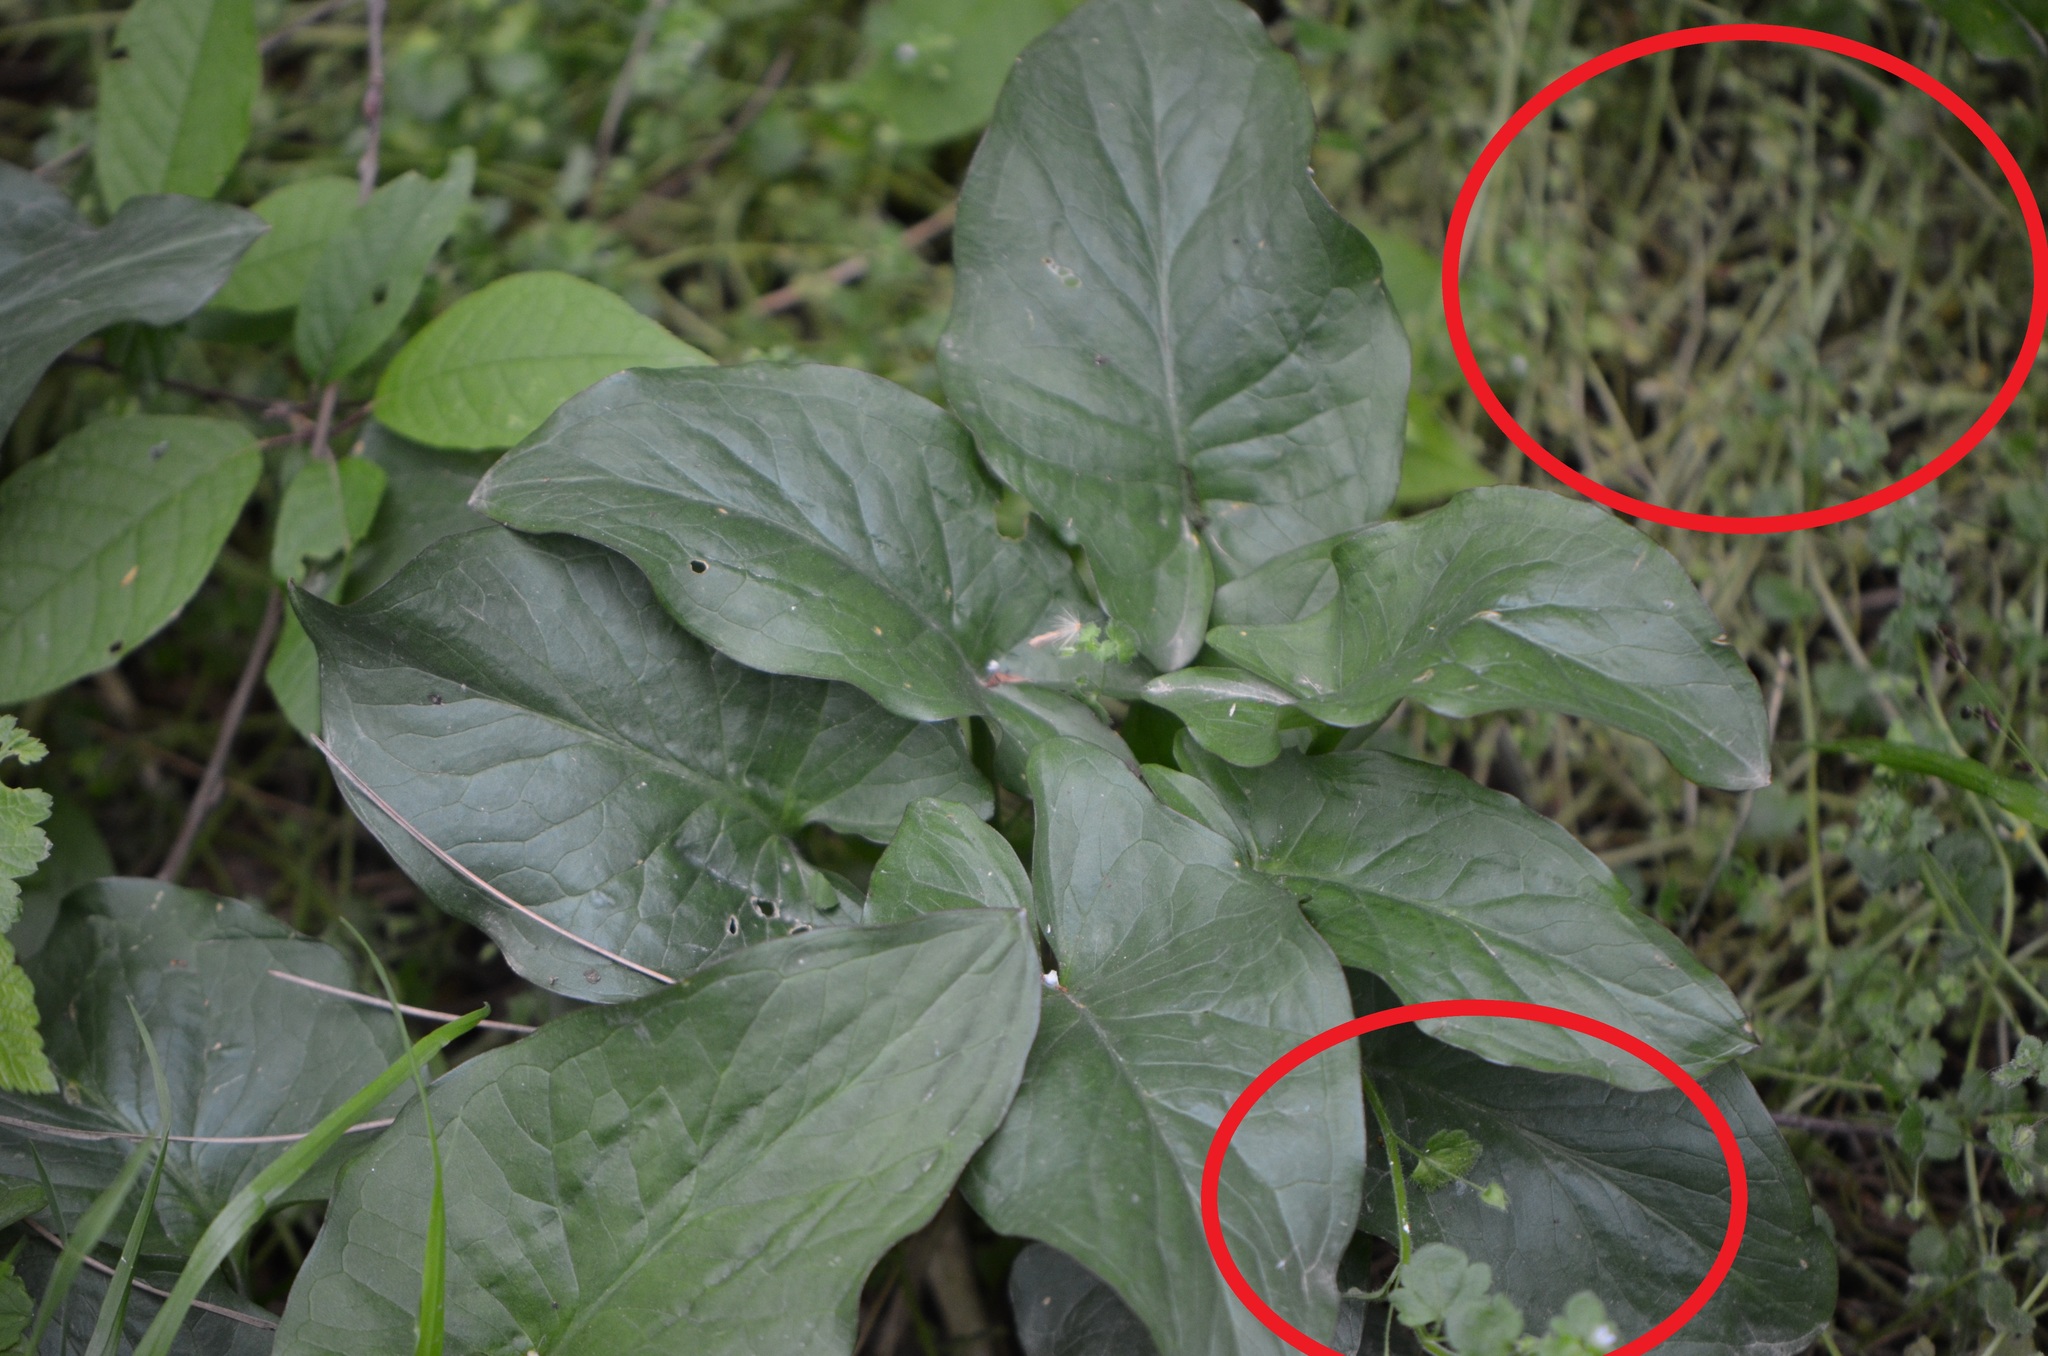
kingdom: Plantae
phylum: Tracheophyta
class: Magnoliopsida
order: Lamiales
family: Plantaginaceae
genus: Veronica
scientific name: Veronica sublobata
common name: False ivy-leaved speedwell
